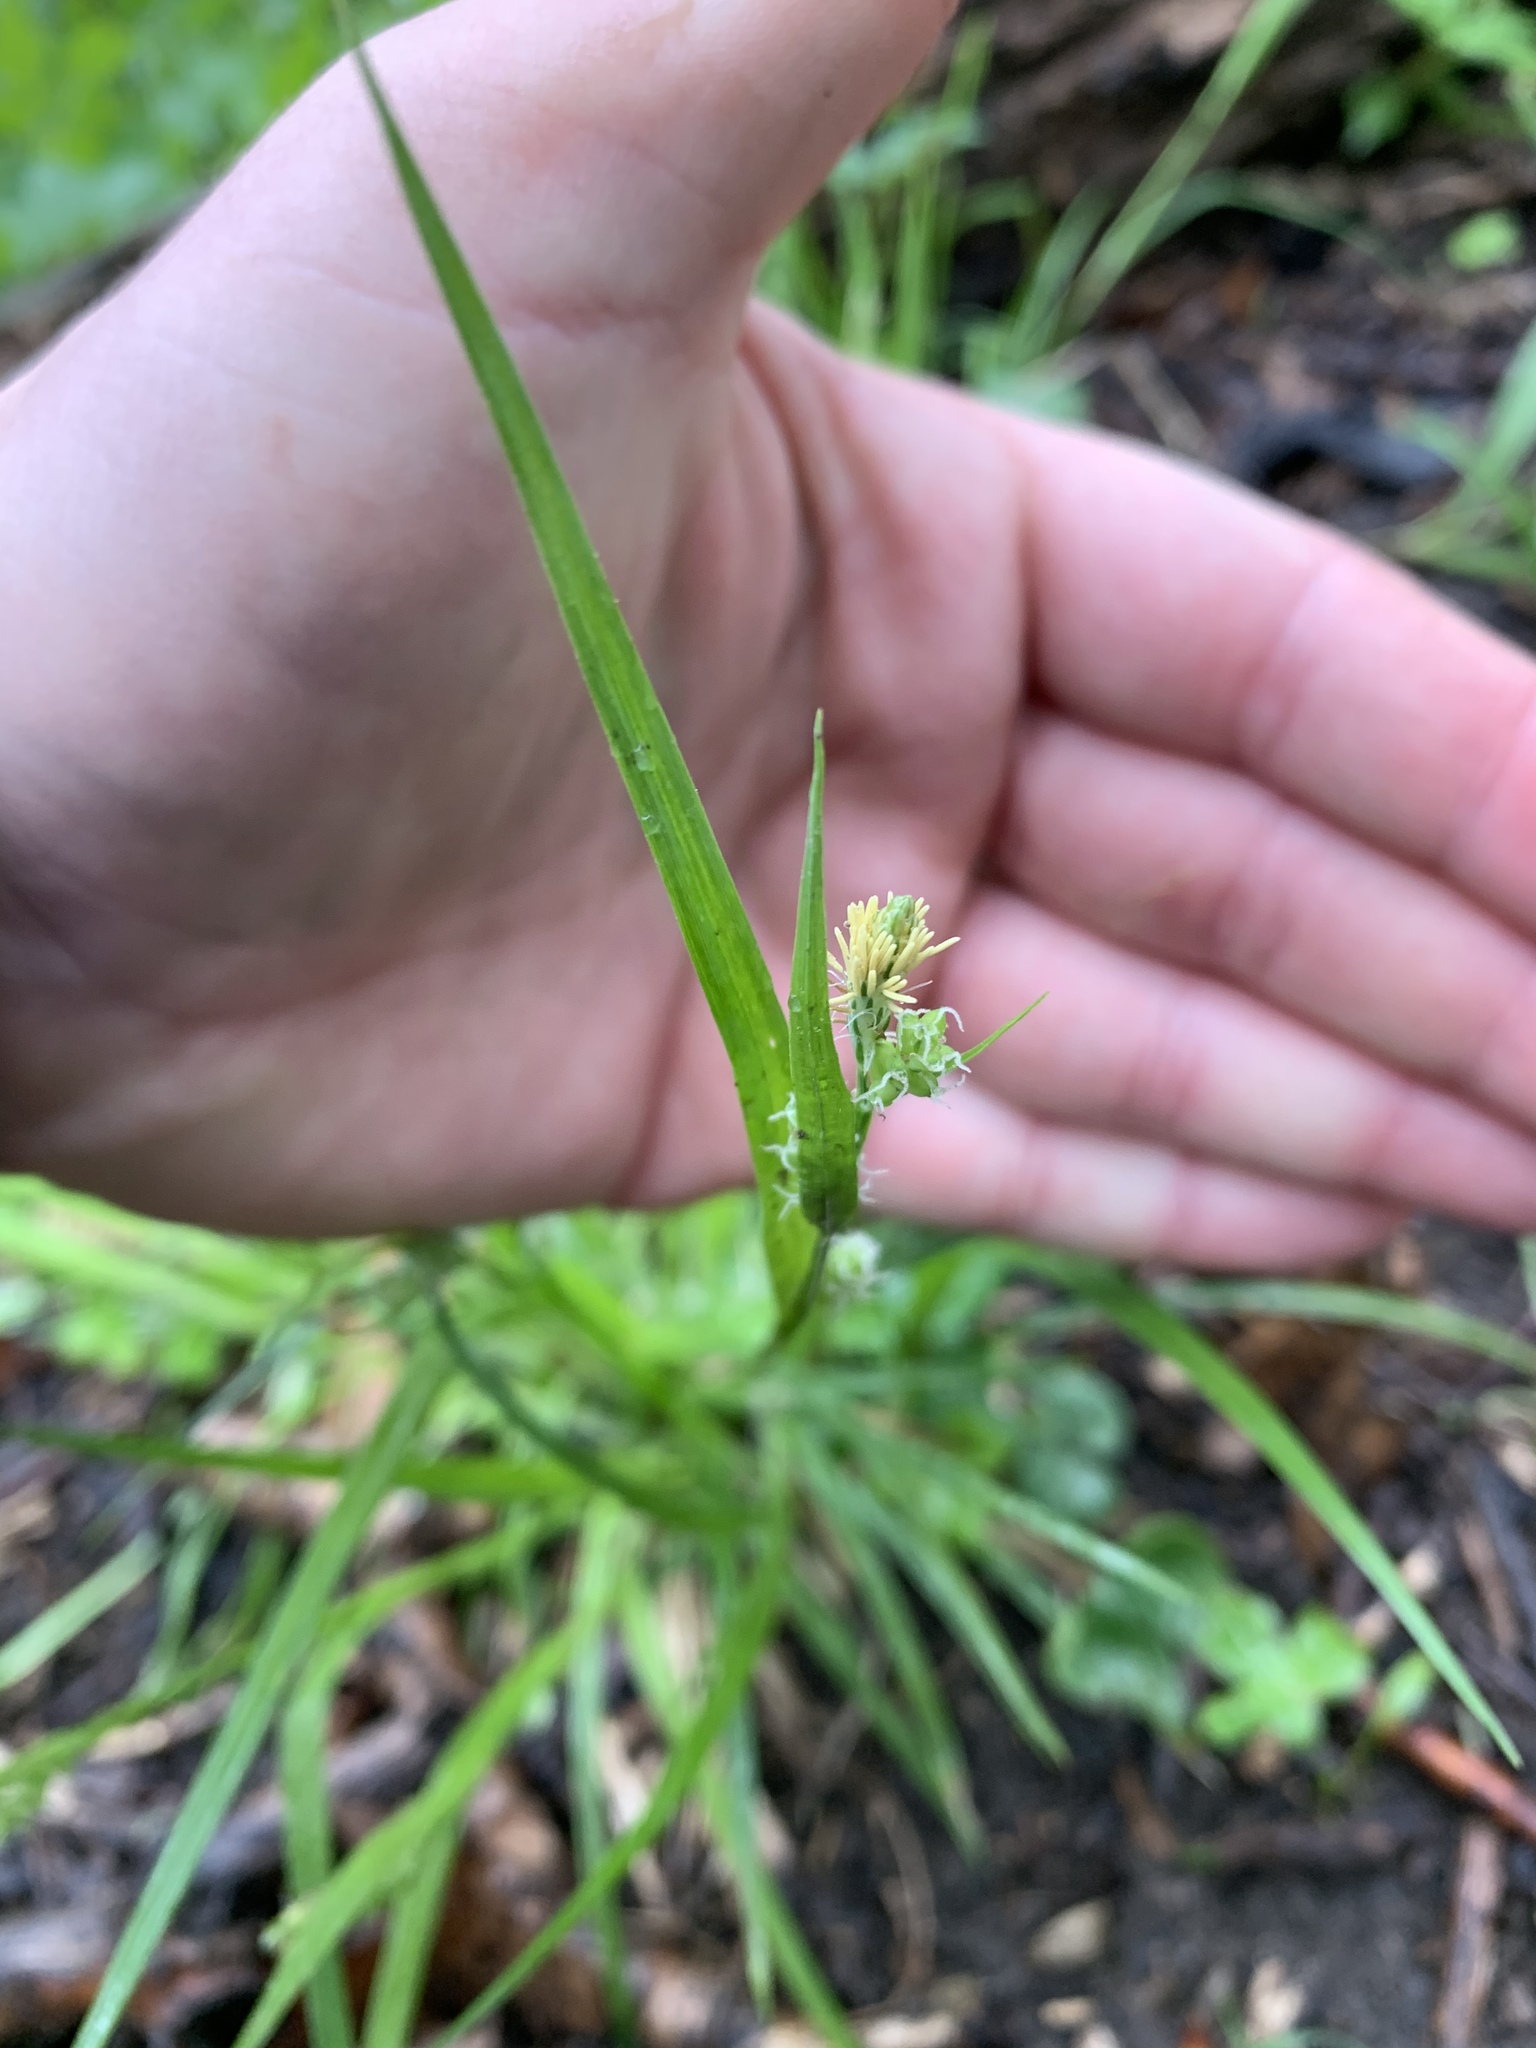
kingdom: Plantae
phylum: Tracheophyta
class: Liliopsida
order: Poales
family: Cyperaceae
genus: Carex
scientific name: Carex blanda
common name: Bland sedge
